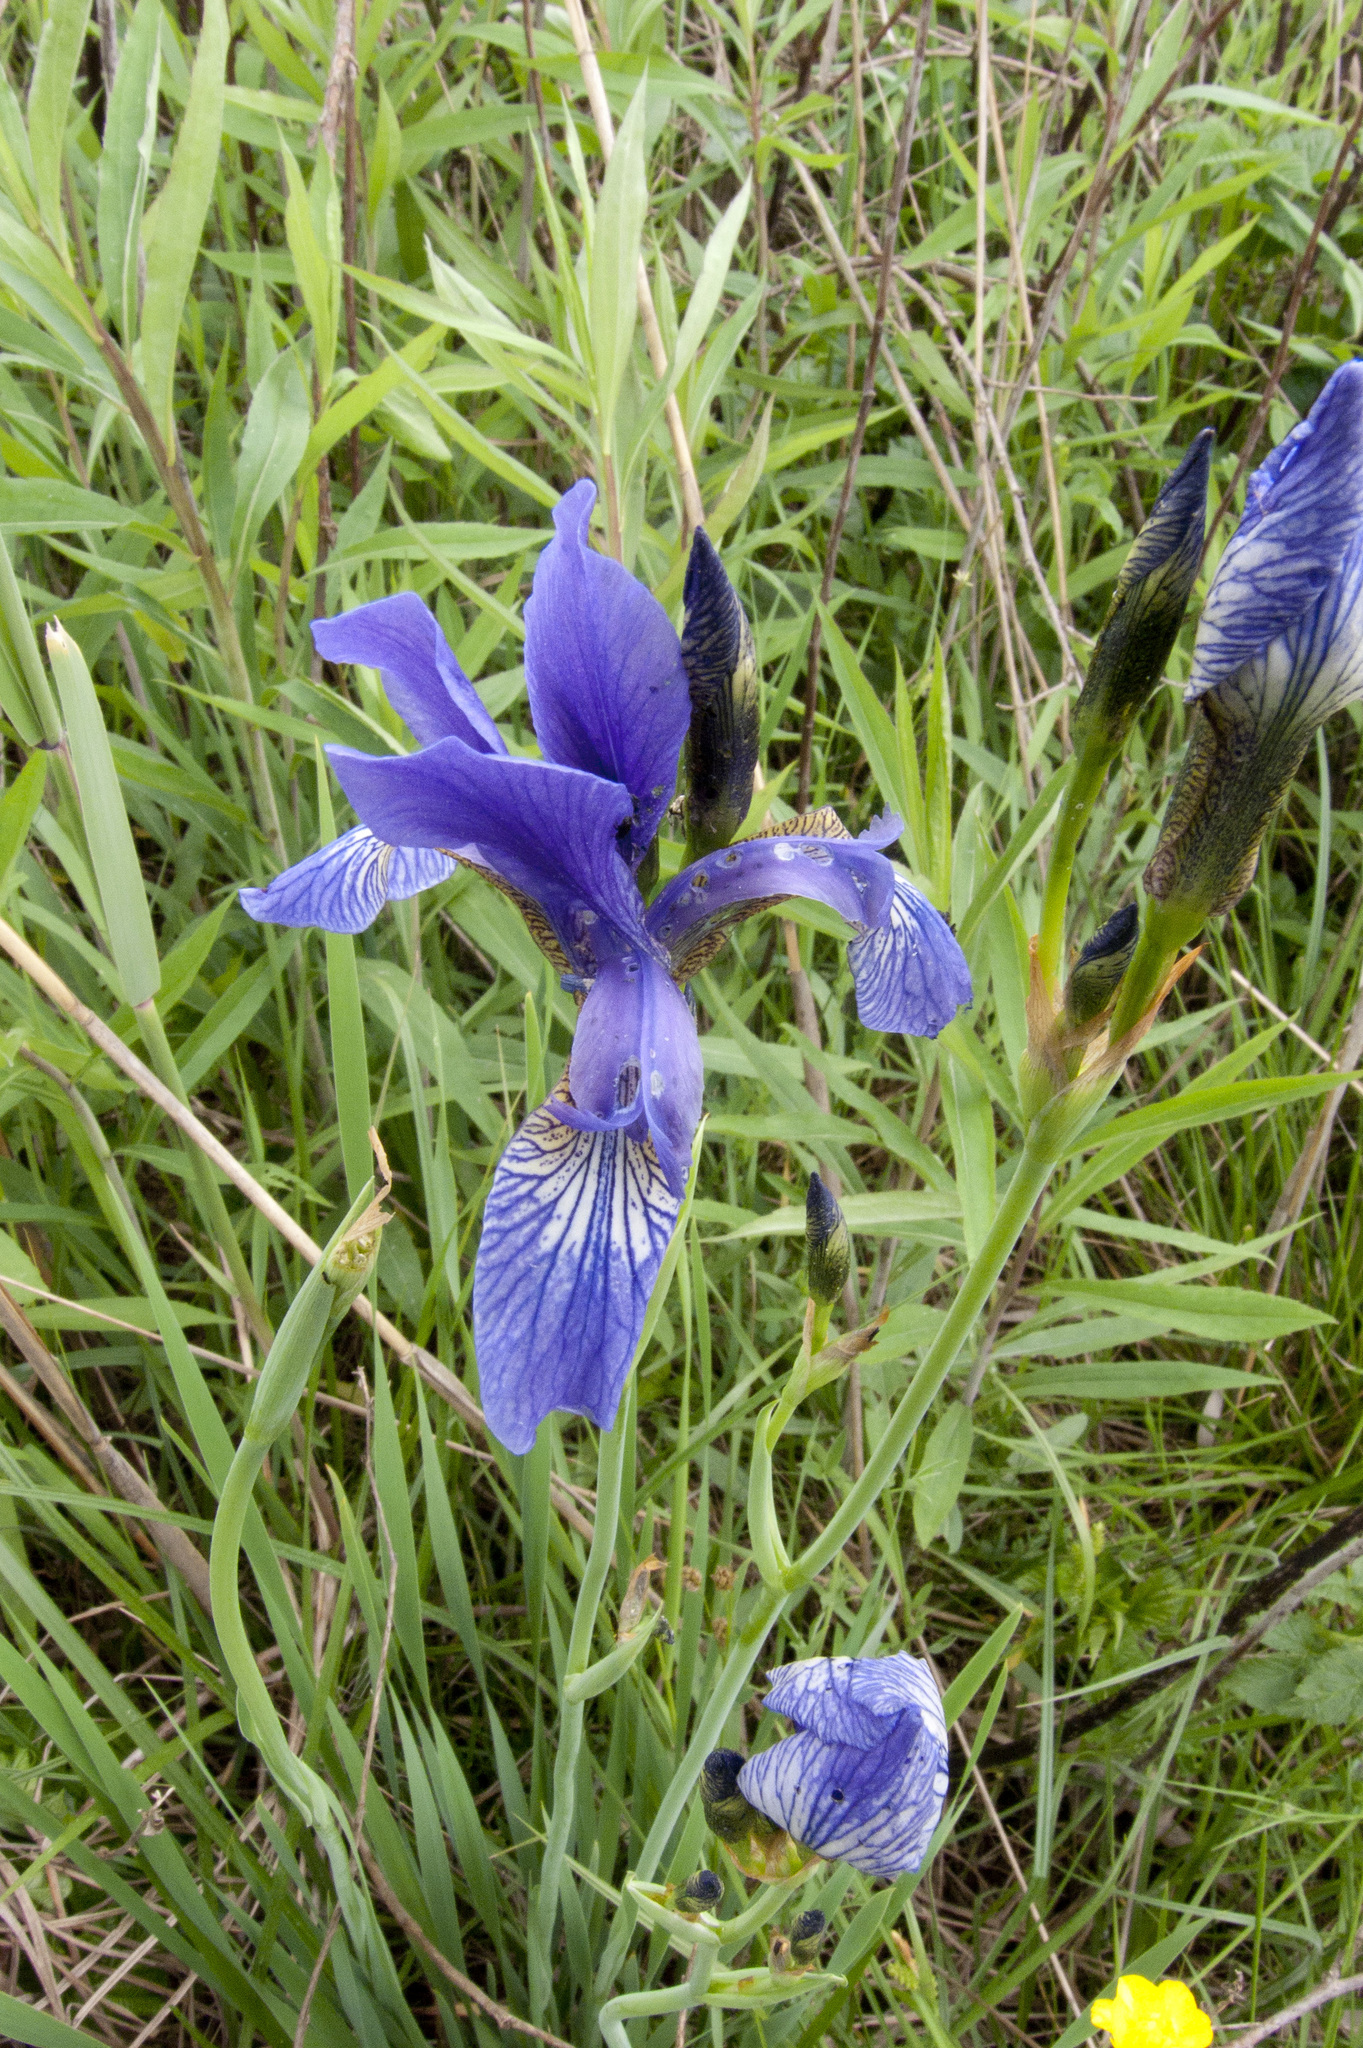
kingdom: Plantae
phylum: Tracheophyta
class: Liliopsida
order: Asparagales
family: Iridaceae
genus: Iris
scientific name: Iris sibirica
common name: Siberian iris
